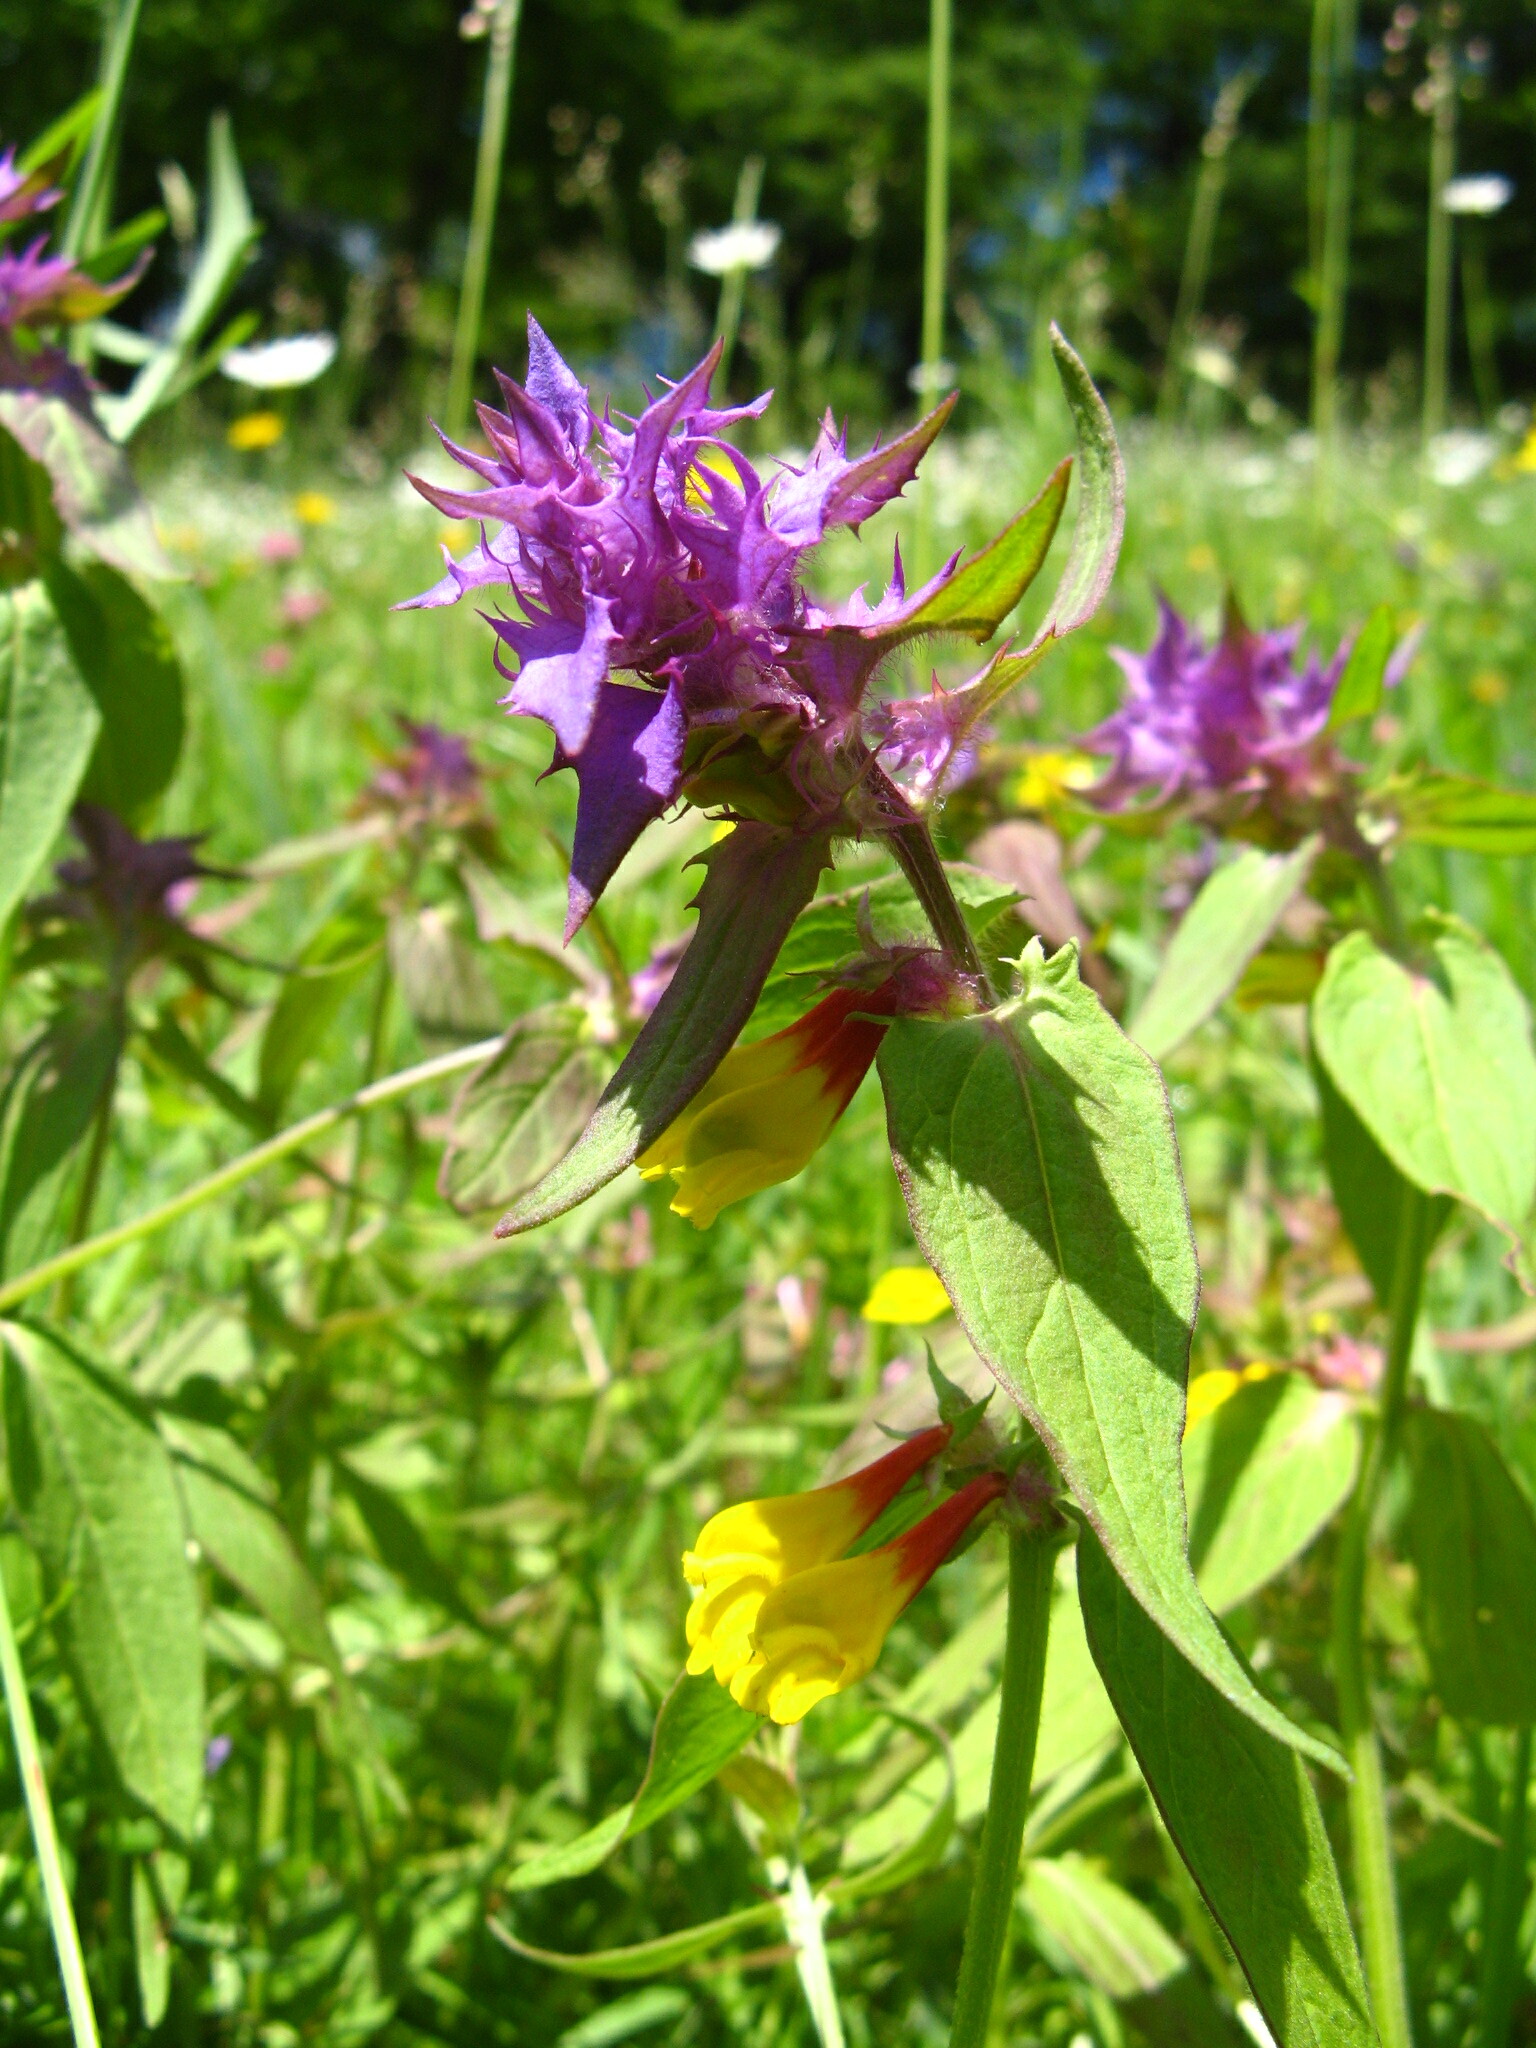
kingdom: Plantae
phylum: Tracheophyta
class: Magnoliopsida
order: Lamiales
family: Orobanchaceae
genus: Melampyrum
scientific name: Melampyrum nemorosum
